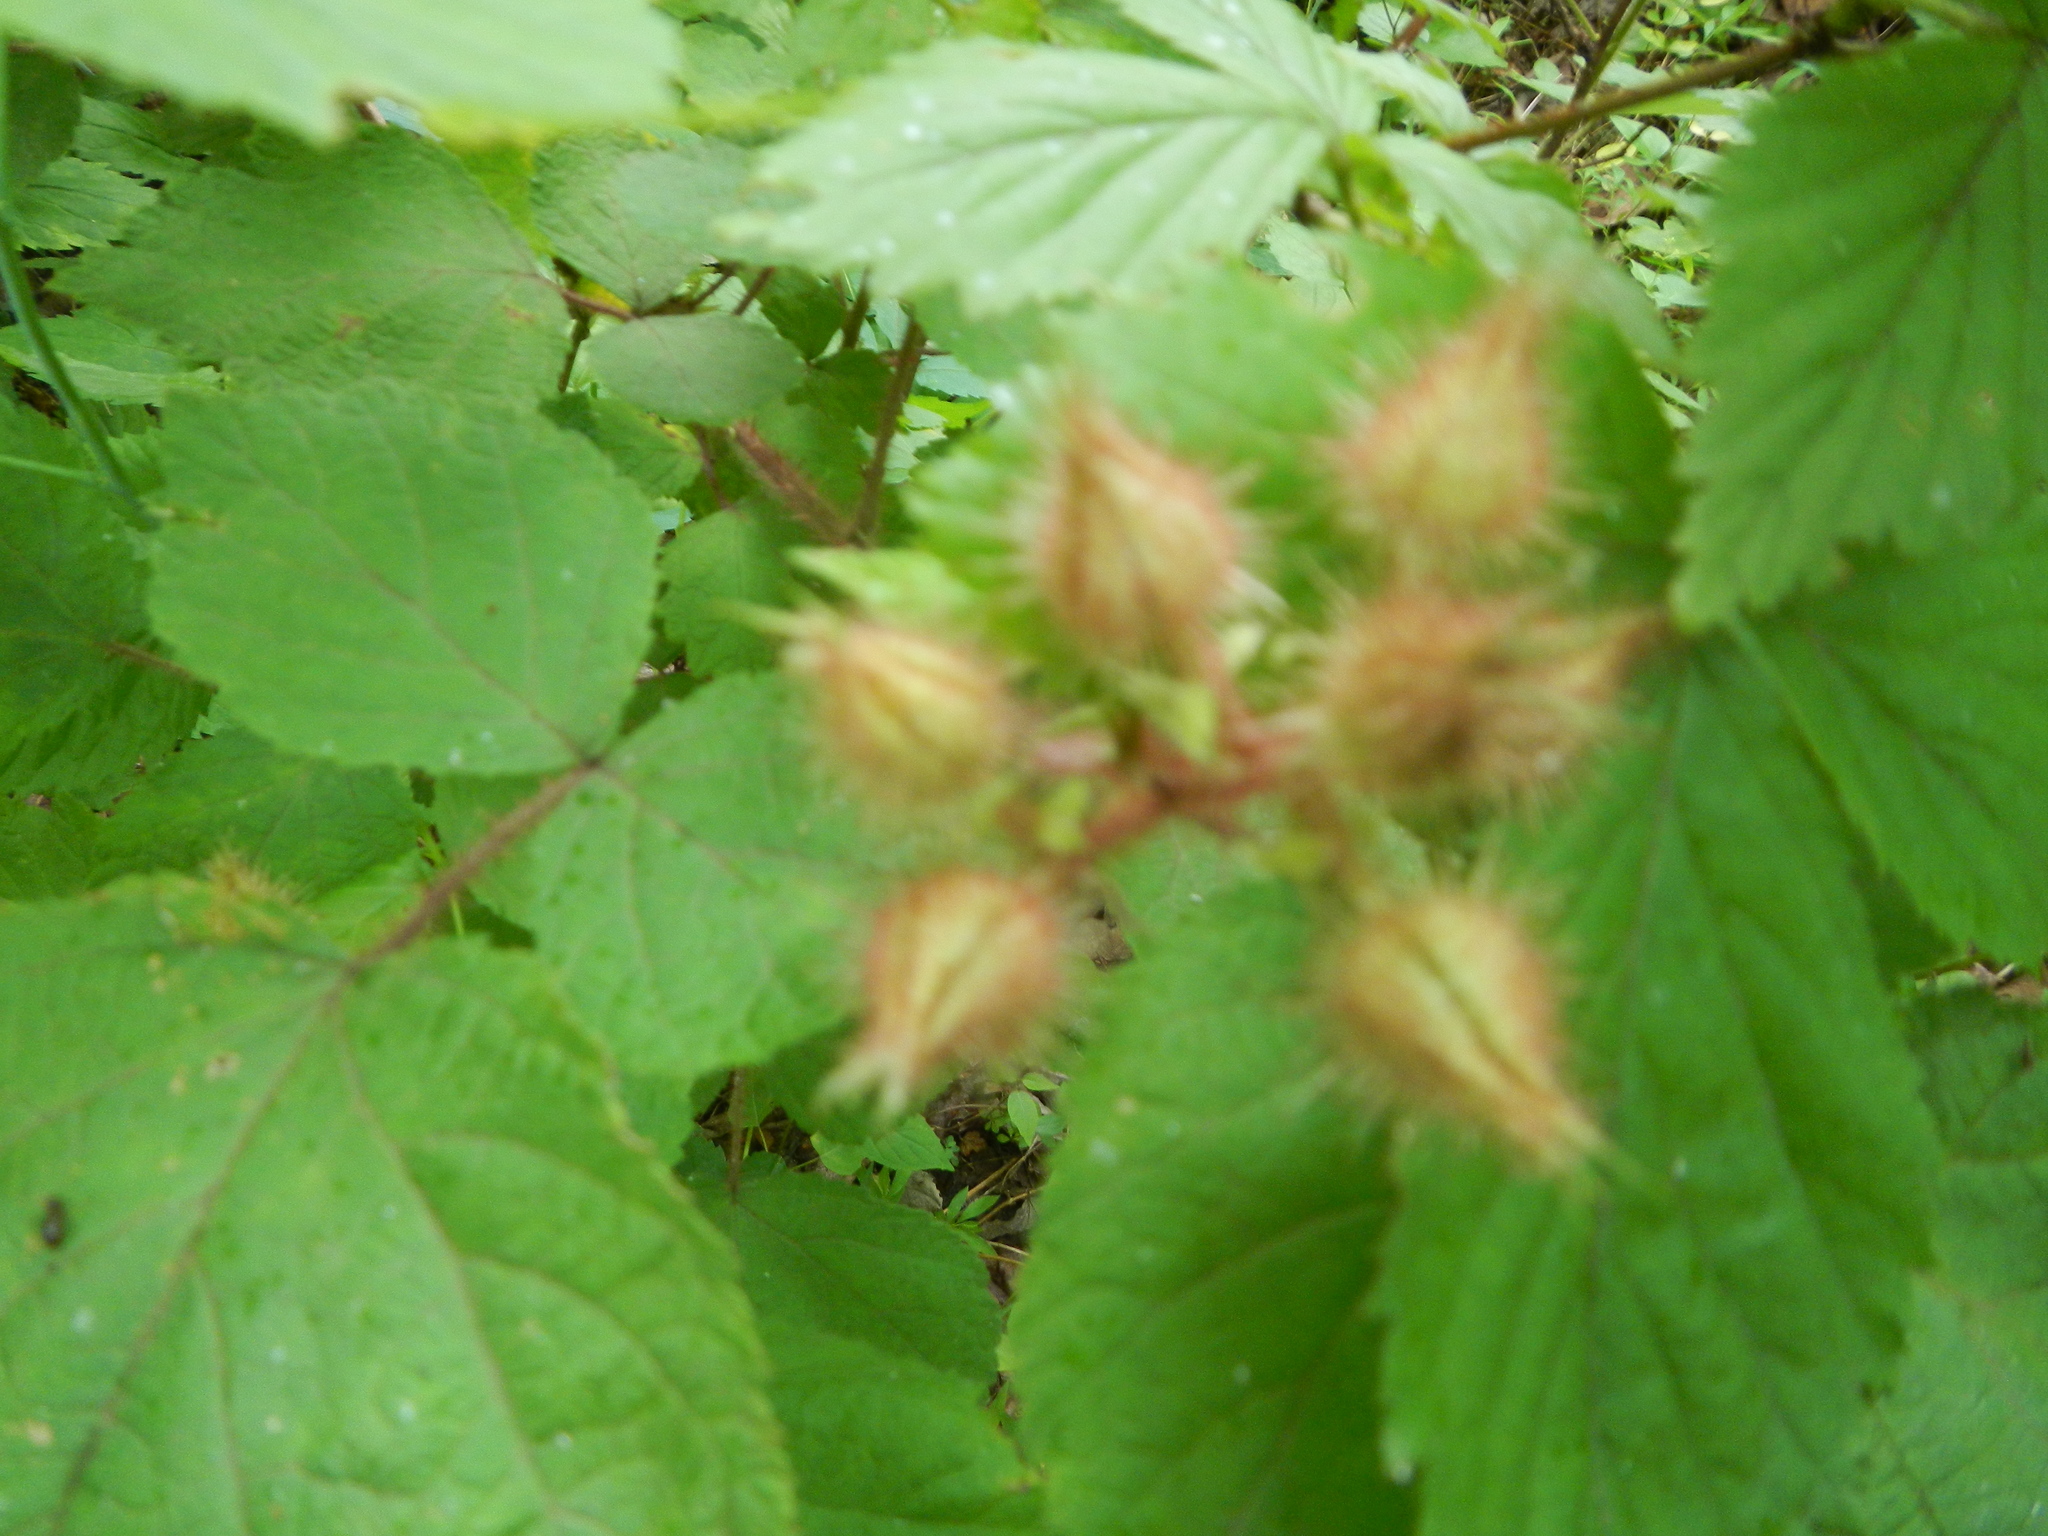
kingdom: Plantae
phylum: Tracheophyta
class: Magnoliopsida
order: Rosales
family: Rosaceae
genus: Rubus
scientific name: Rubus phoenicolasius
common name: Japanese wineberry
